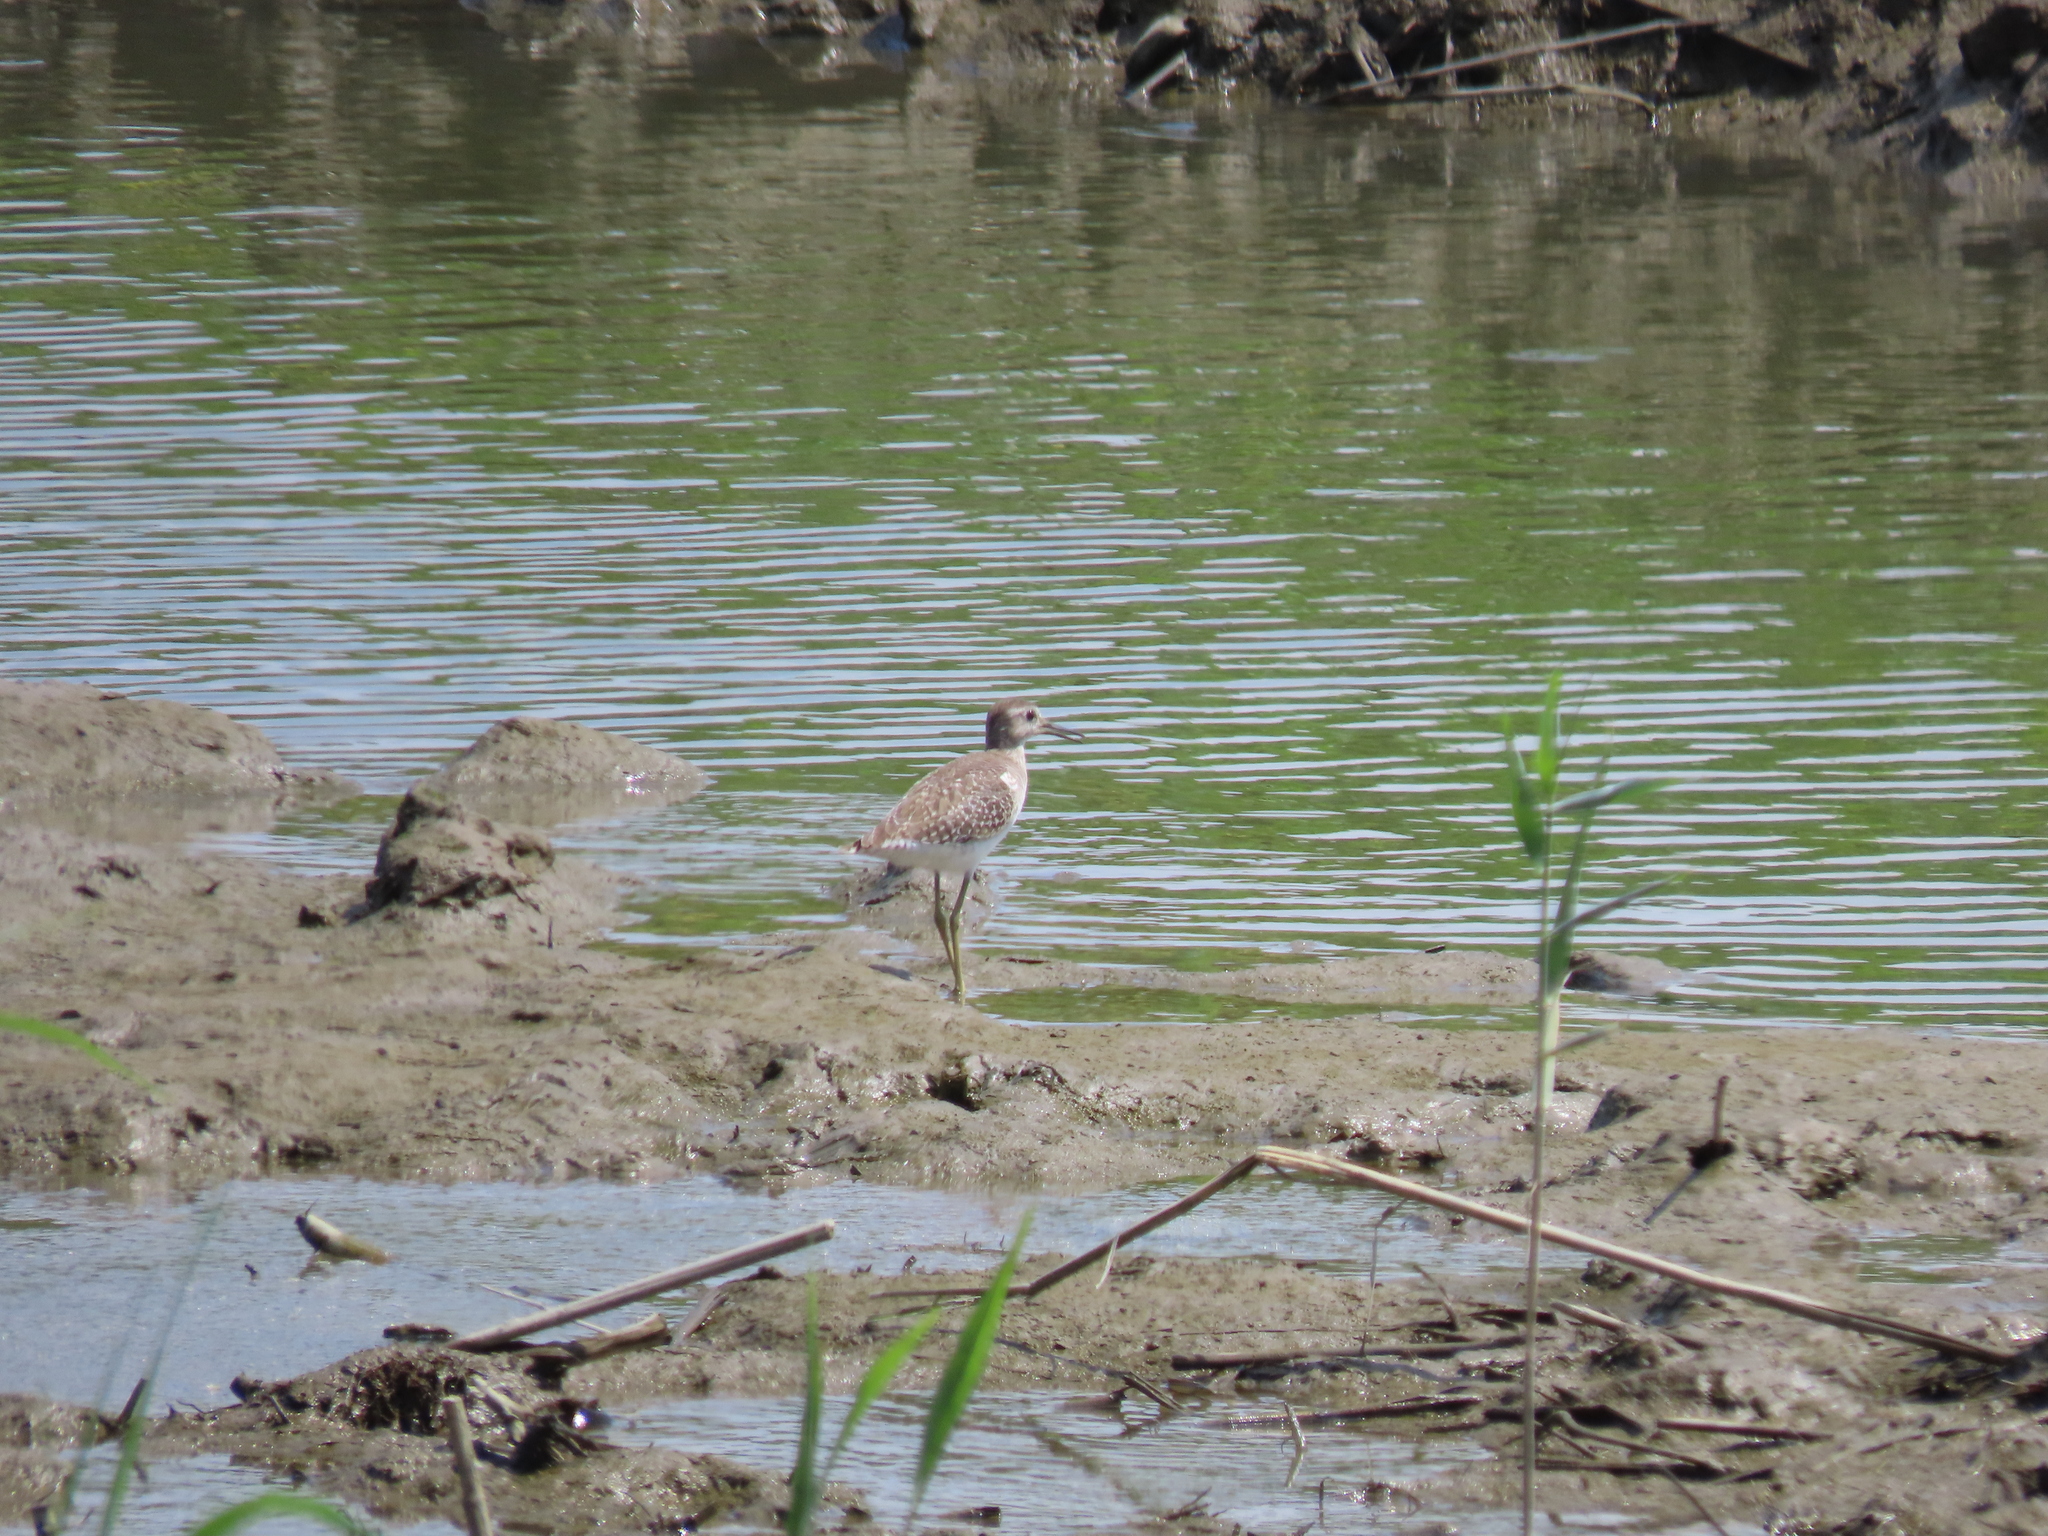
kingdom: Animalia
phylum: Chordata
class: Aves
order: Charadriiformes
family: Scolopacidae
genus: Tringa
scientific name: Tringa glareola
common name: Wood sandpiper
